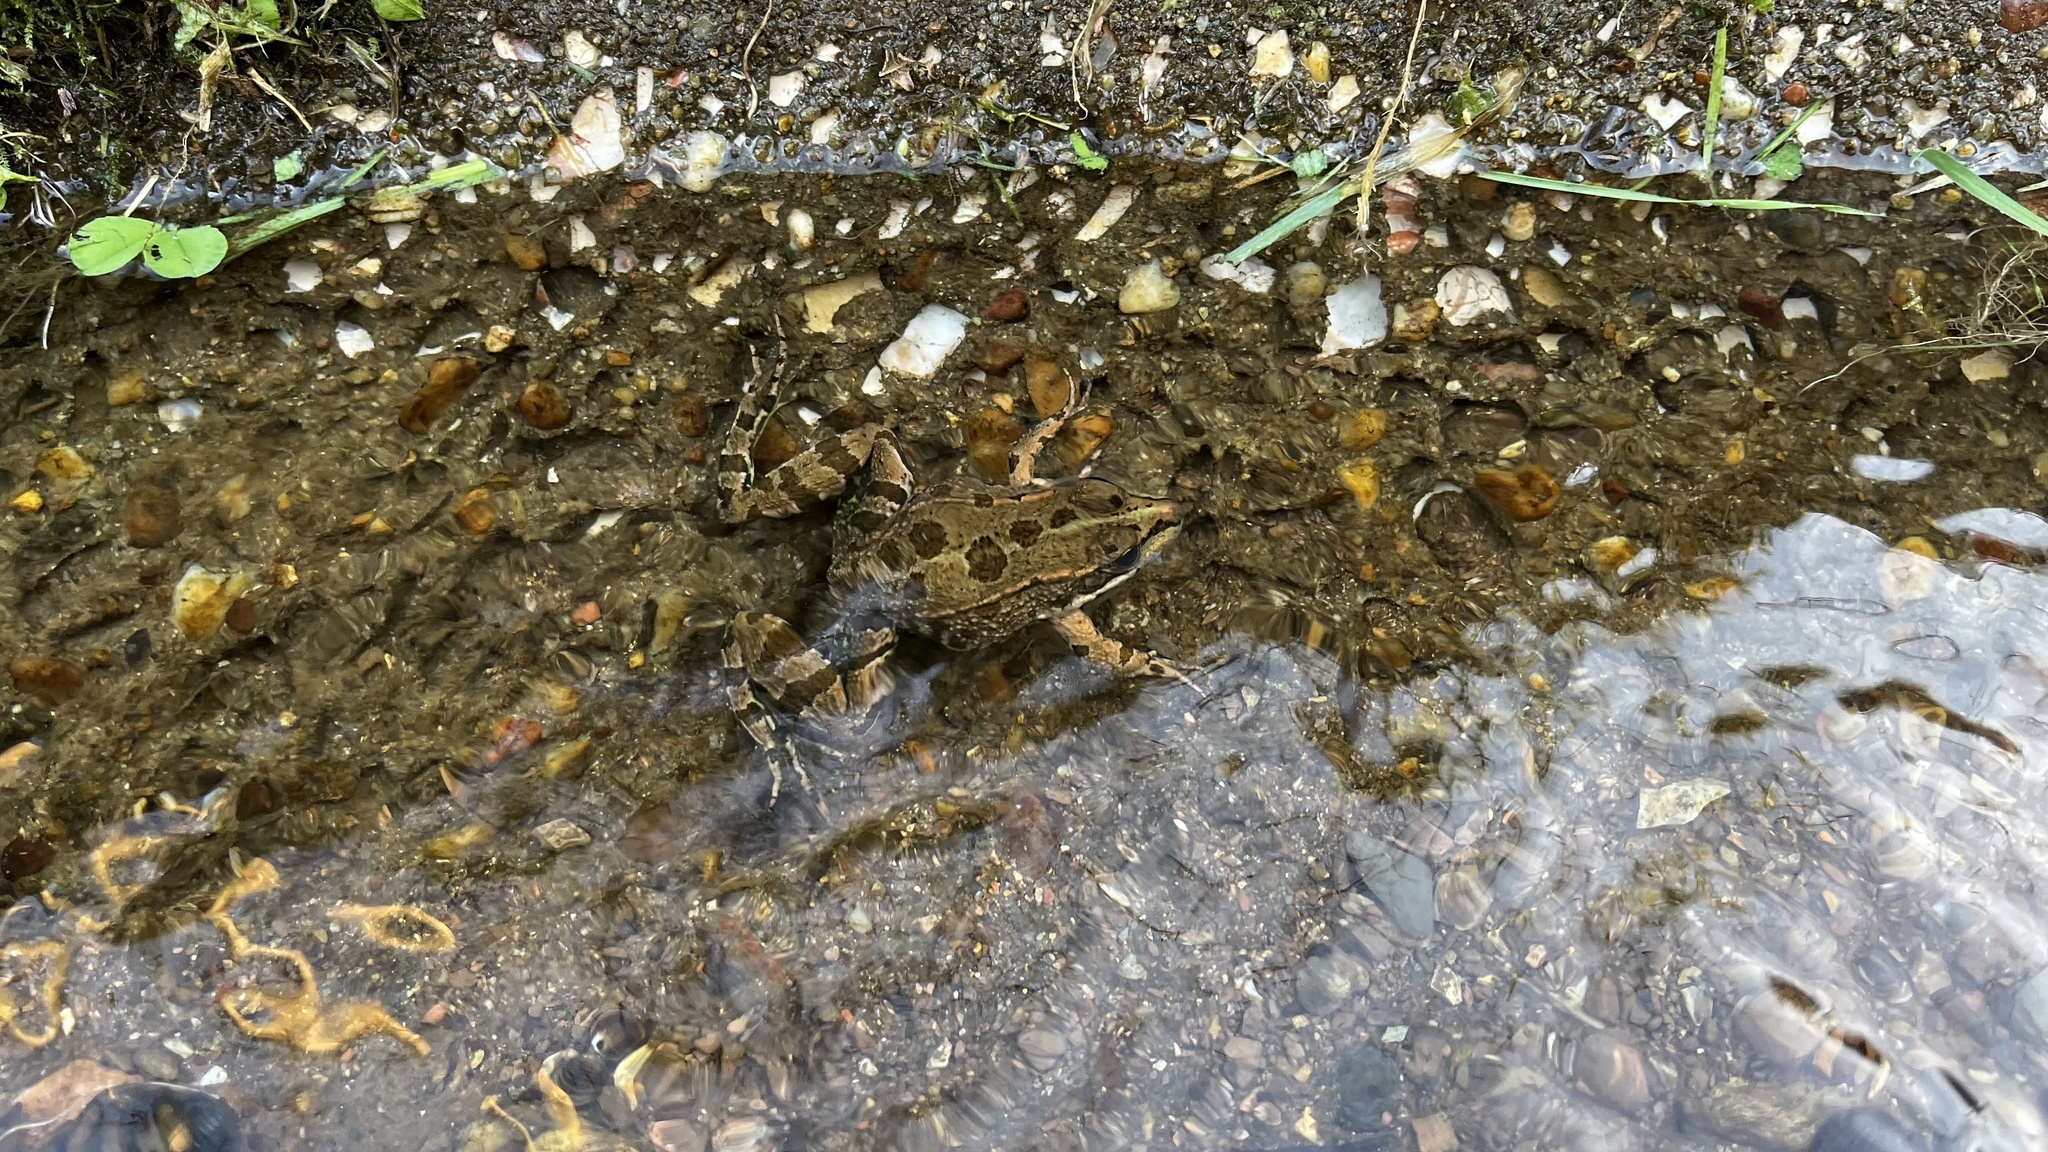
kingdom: Animalia
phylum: Chordata
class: Amphibia
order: Anura
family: Ranidae
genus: Pelophylax
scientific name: Pelophylax perezi
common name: Perez's frog
